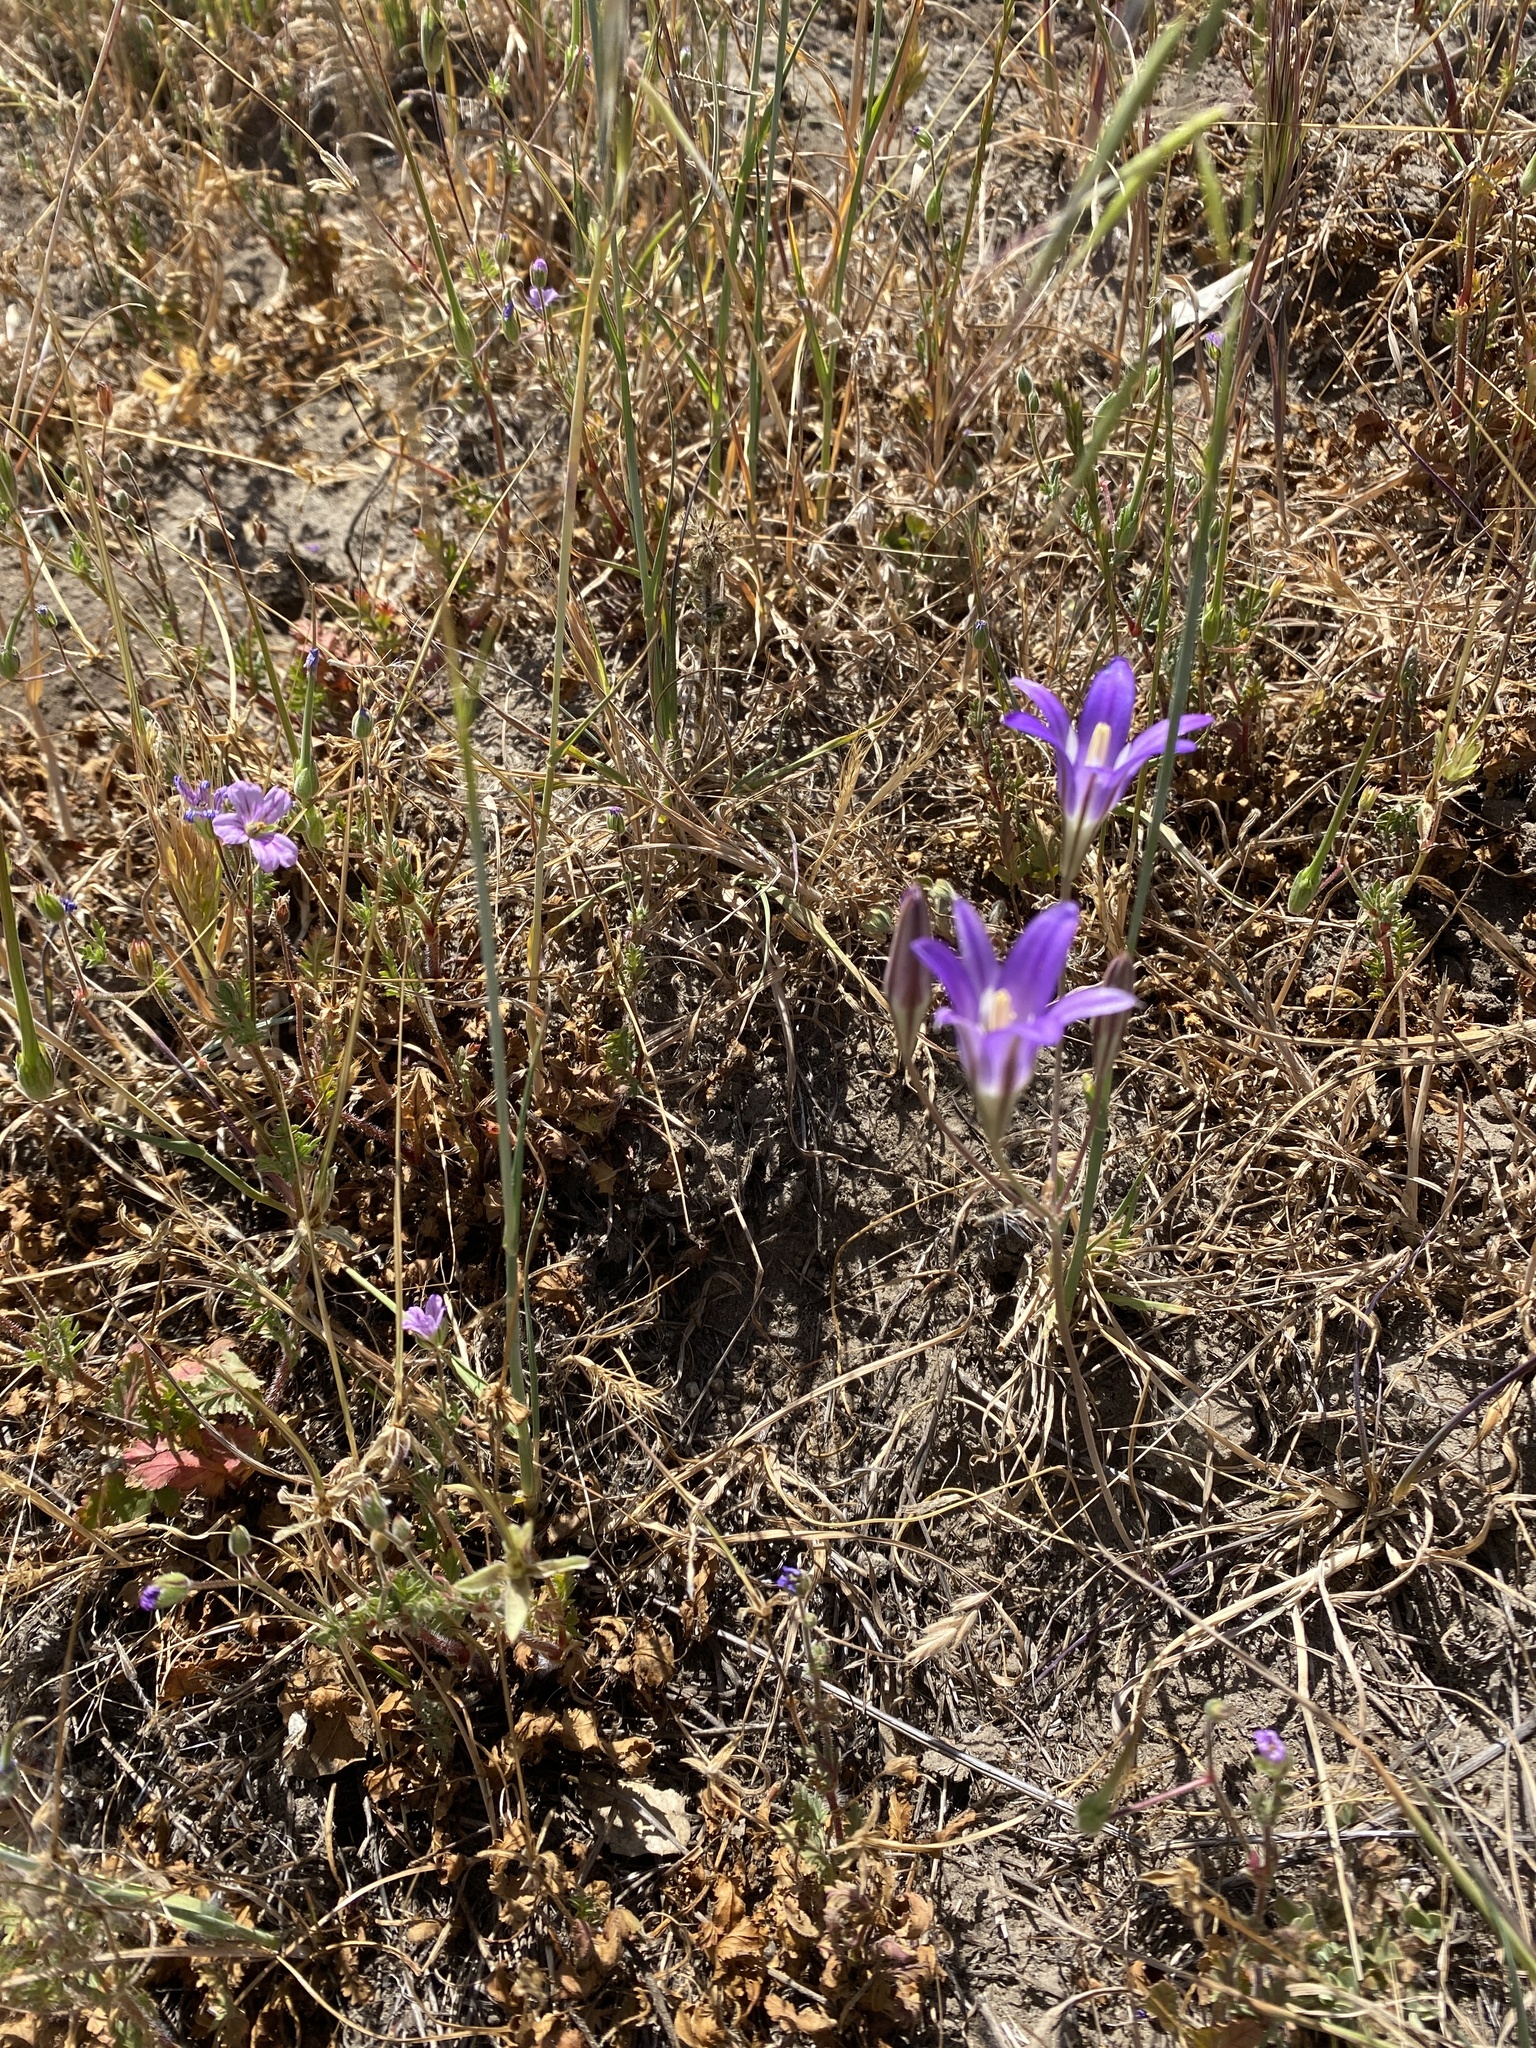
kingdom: Plantae
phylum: Tracheophyta
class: Liliopsida
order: Asparagales
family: Asparagaceae
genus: Brodiaea
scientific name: Brodiaea elegans
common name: Elegant cluster-lily
